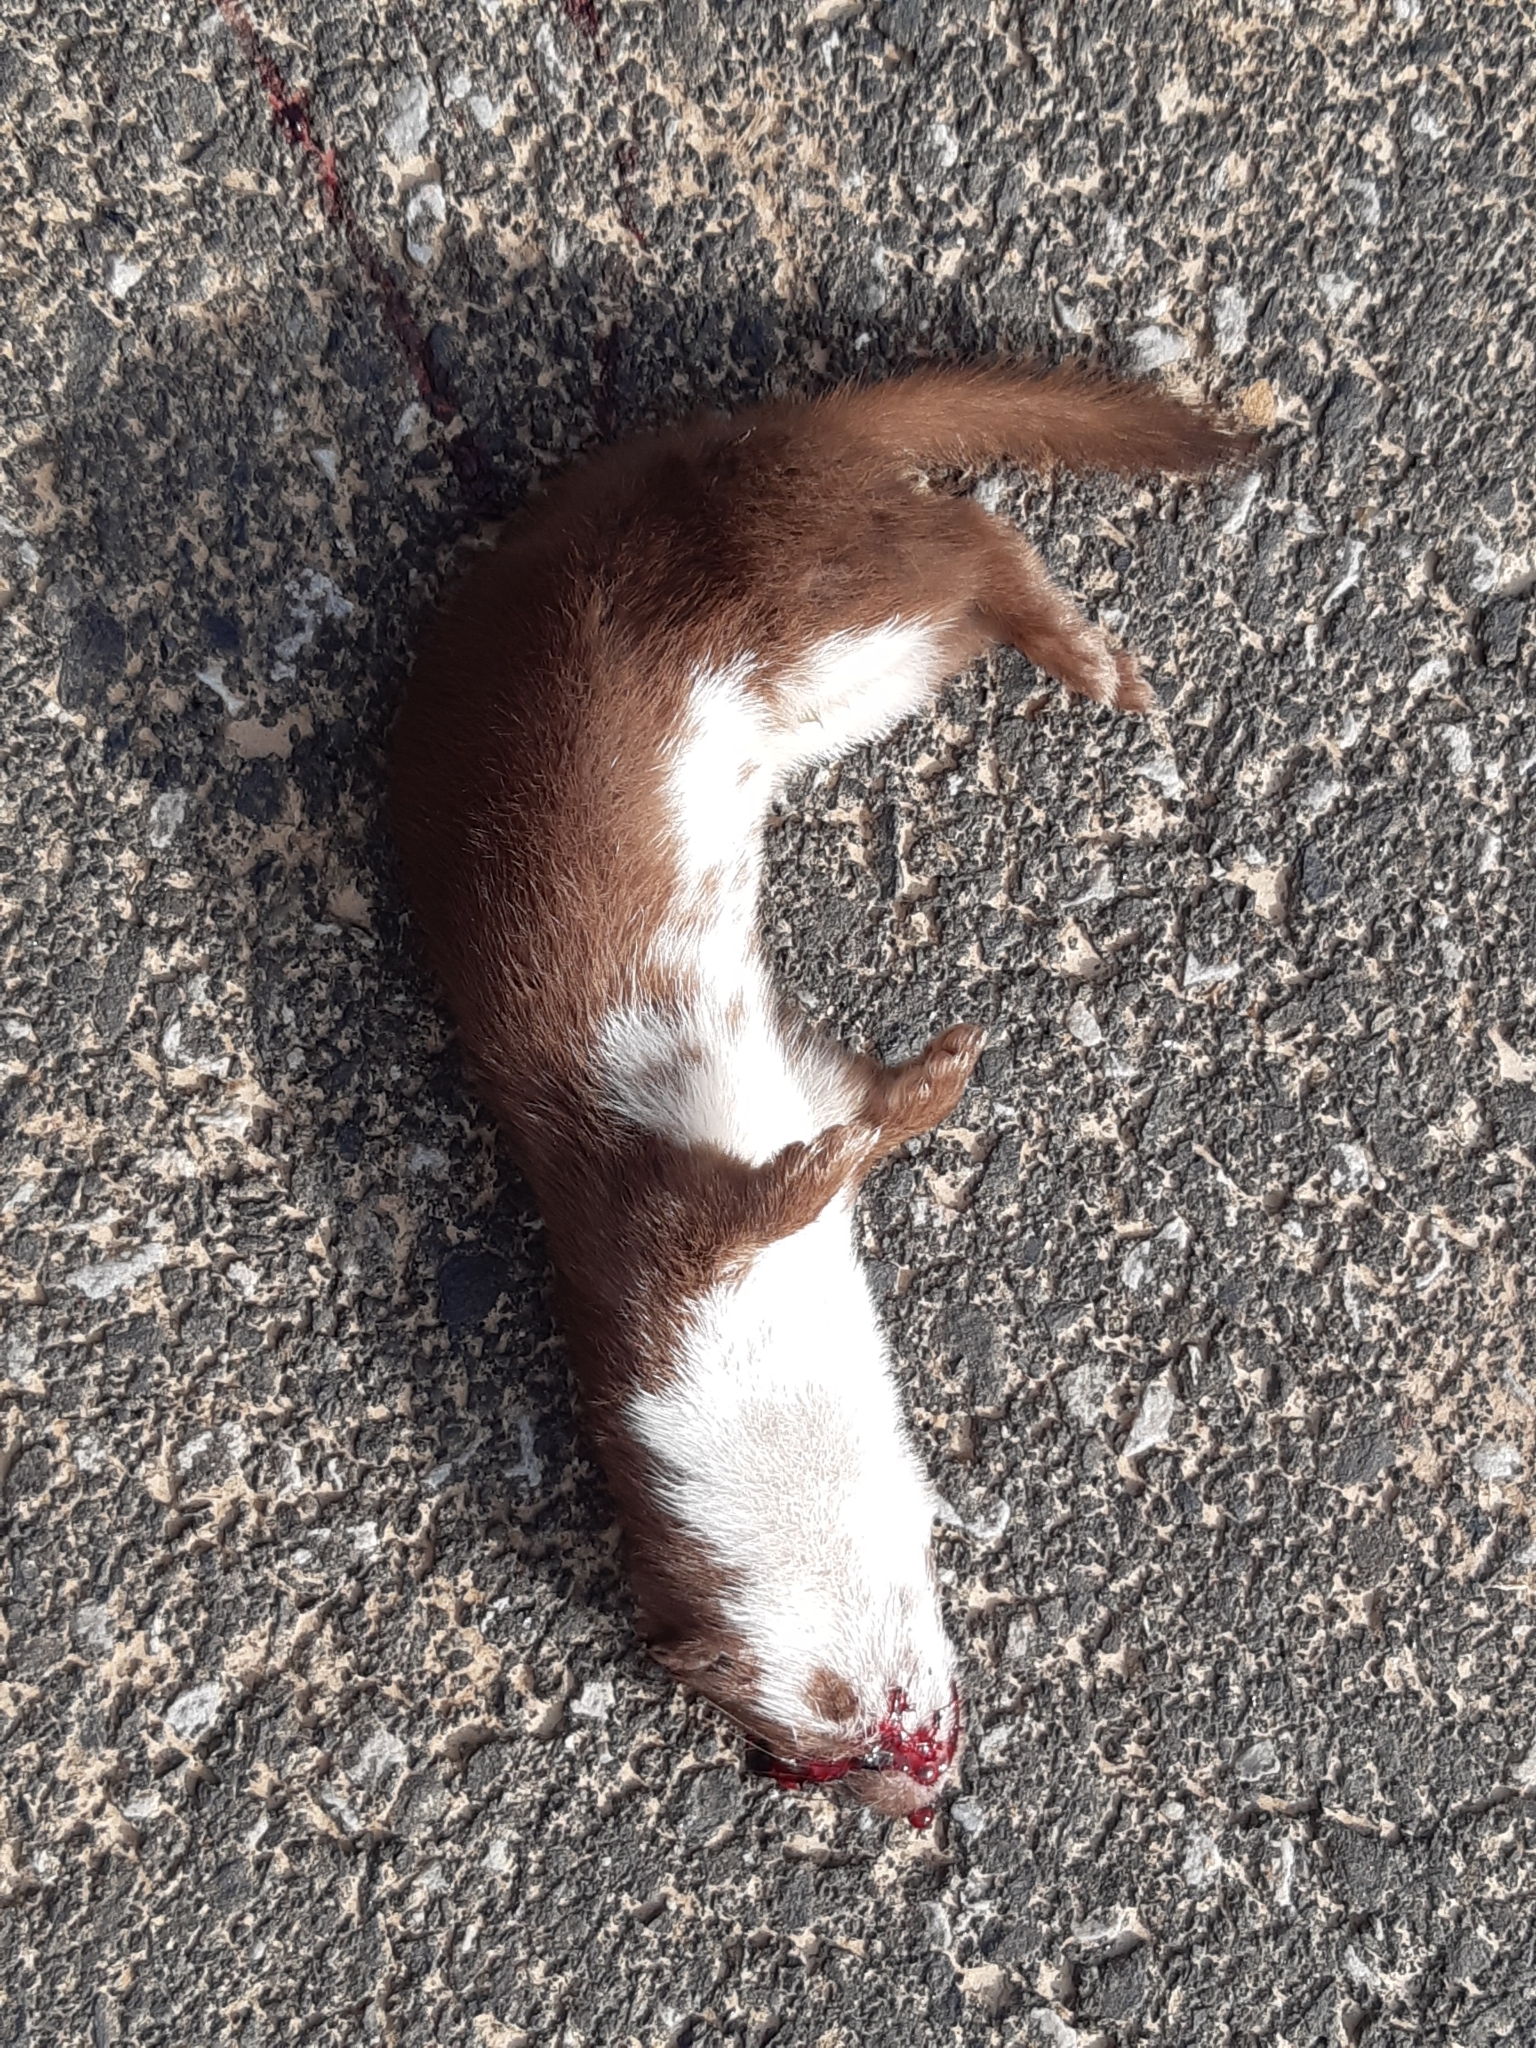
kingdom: Animalia
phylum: Chordata
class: Mammalia
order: Carnivora
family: Mustelidae
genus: Mustela
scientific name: Mustela nivalis
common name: Least weasel
